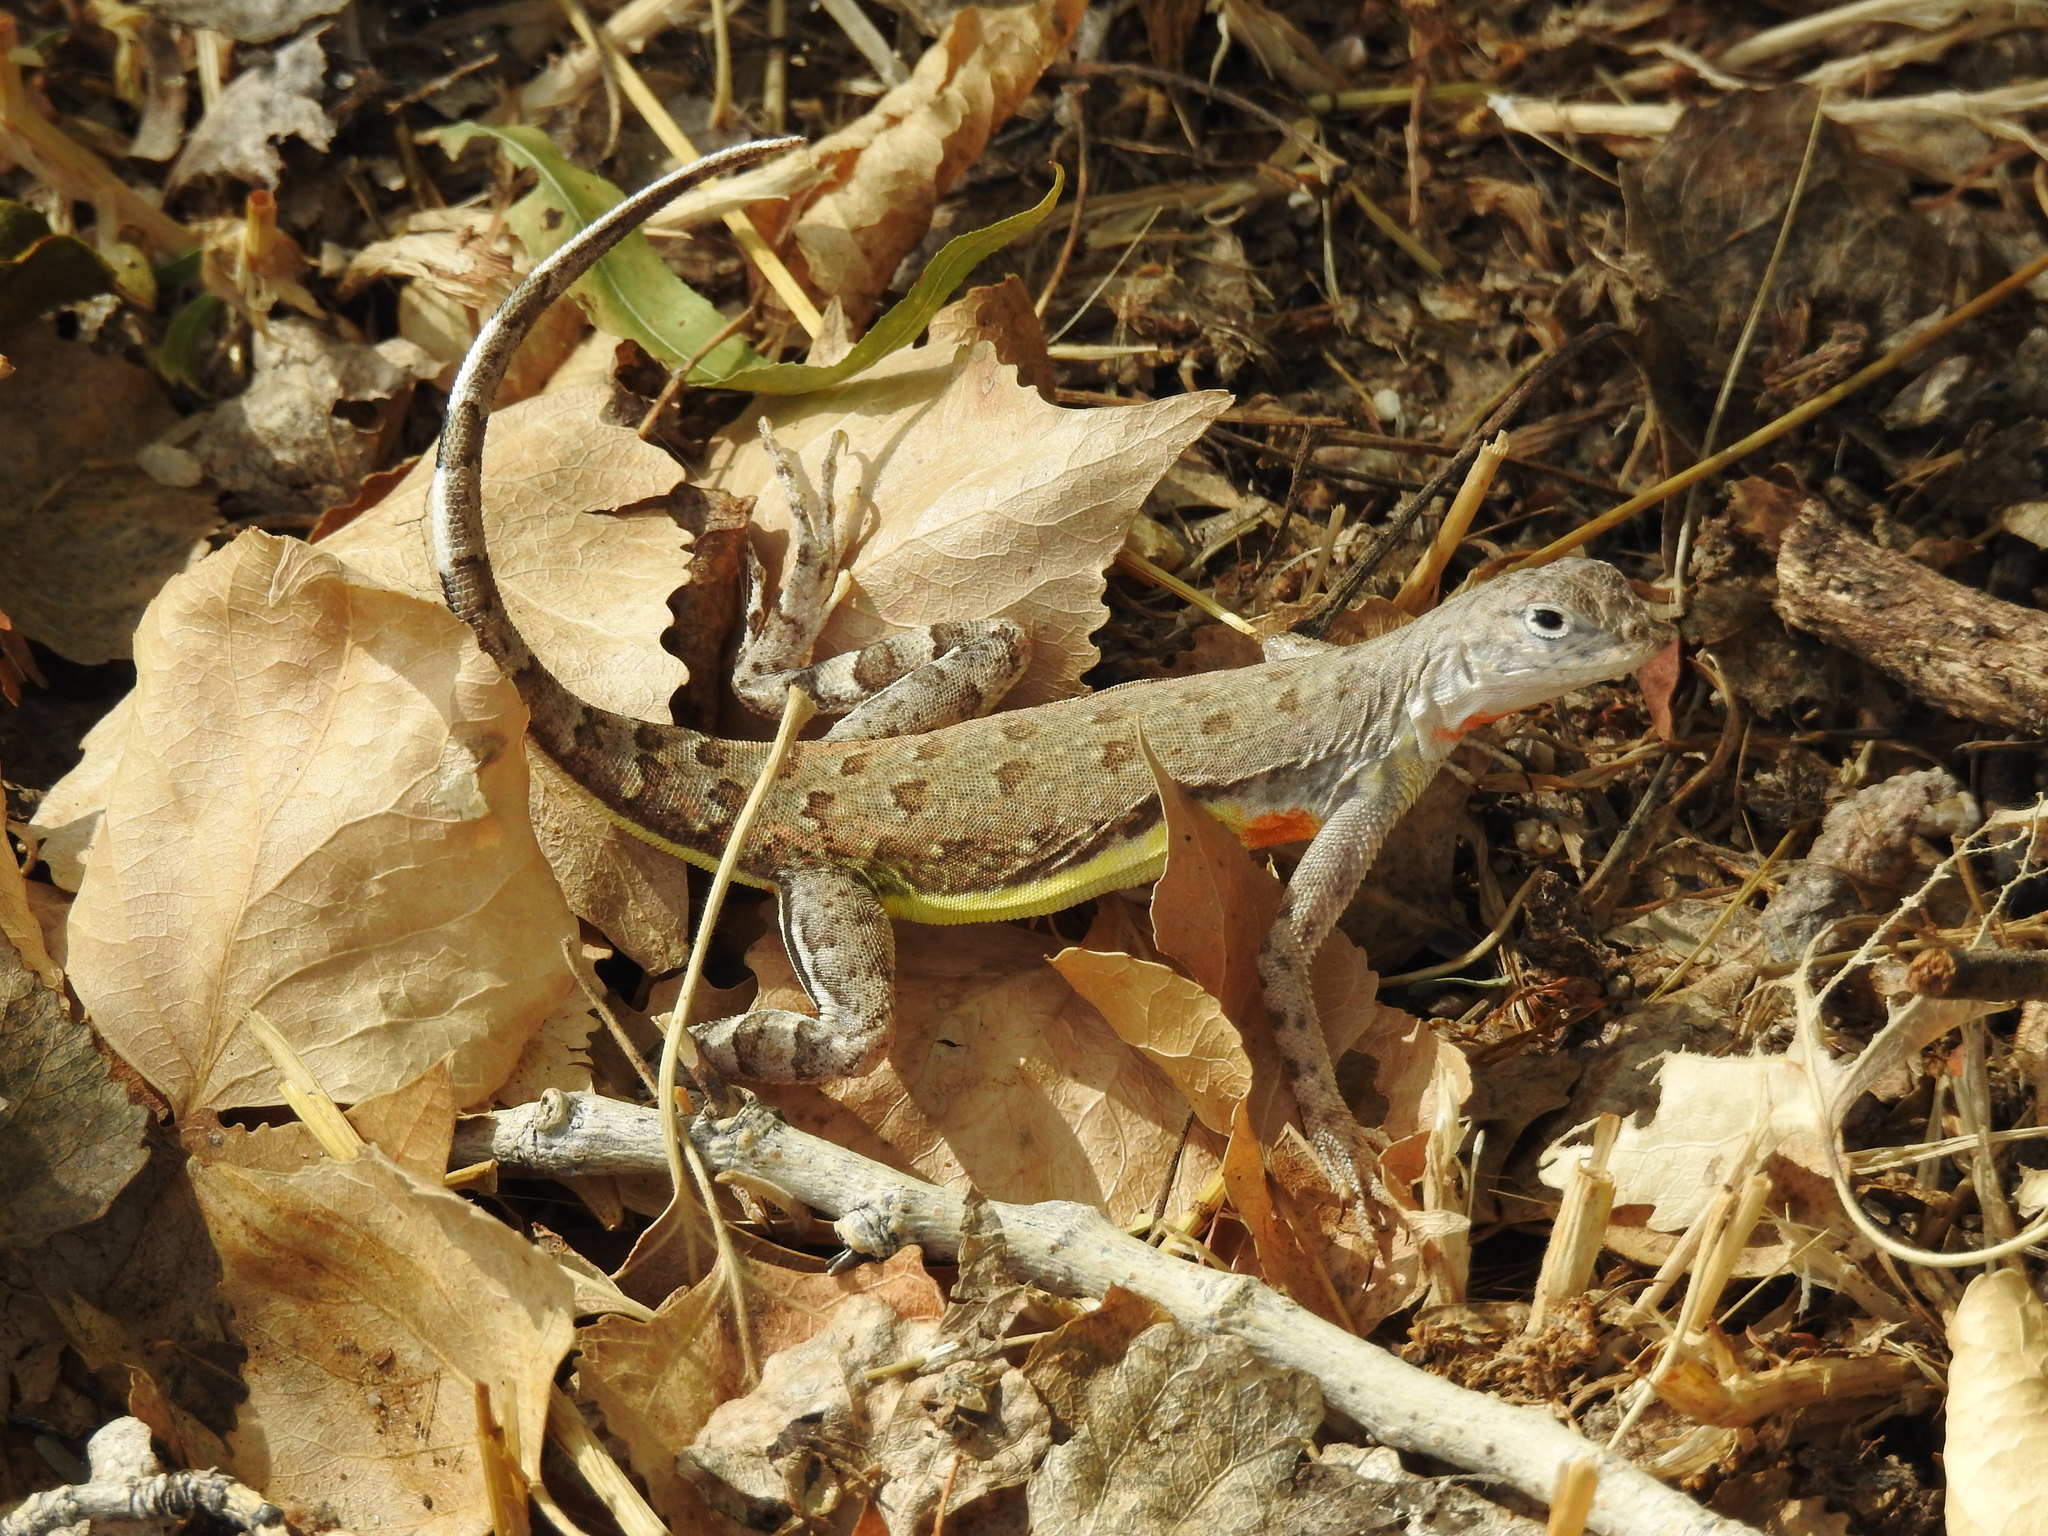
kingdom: Animalia
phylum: Chordata
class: Squamata
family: Phrynosomatidae
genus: Callisaurus
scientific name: Callisaurus draconoides
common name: Zebra-tailed lizard
